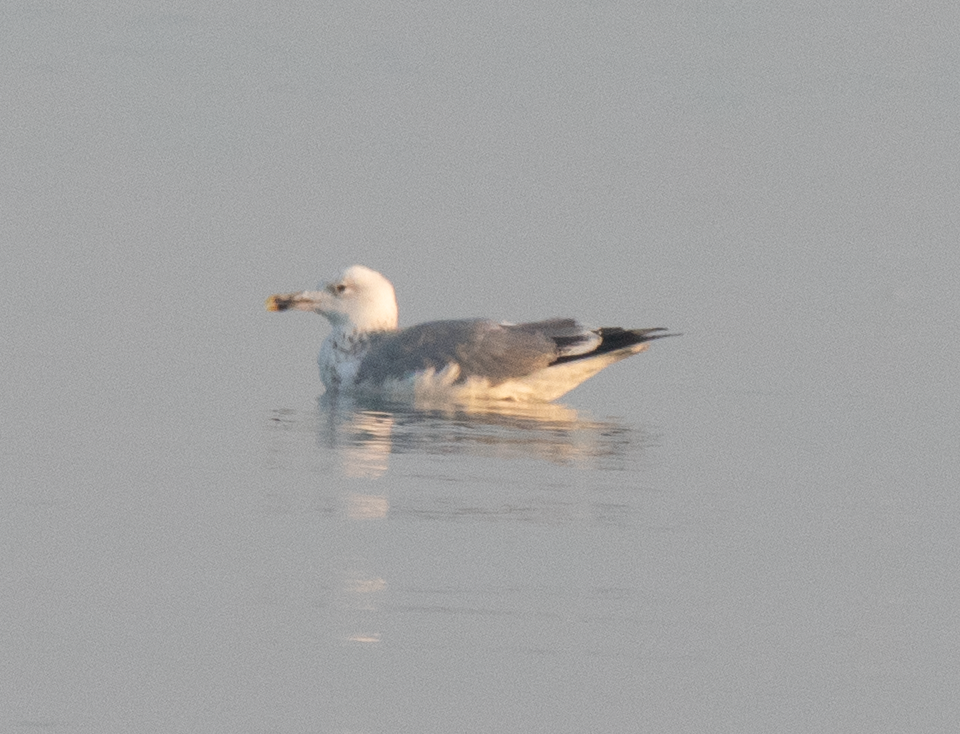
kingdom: Animalia
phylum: Chordata
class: Aves
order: Charadriiformes
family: Laridae
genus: Larus
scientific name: Larus cachinnans
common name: Caspian gull
